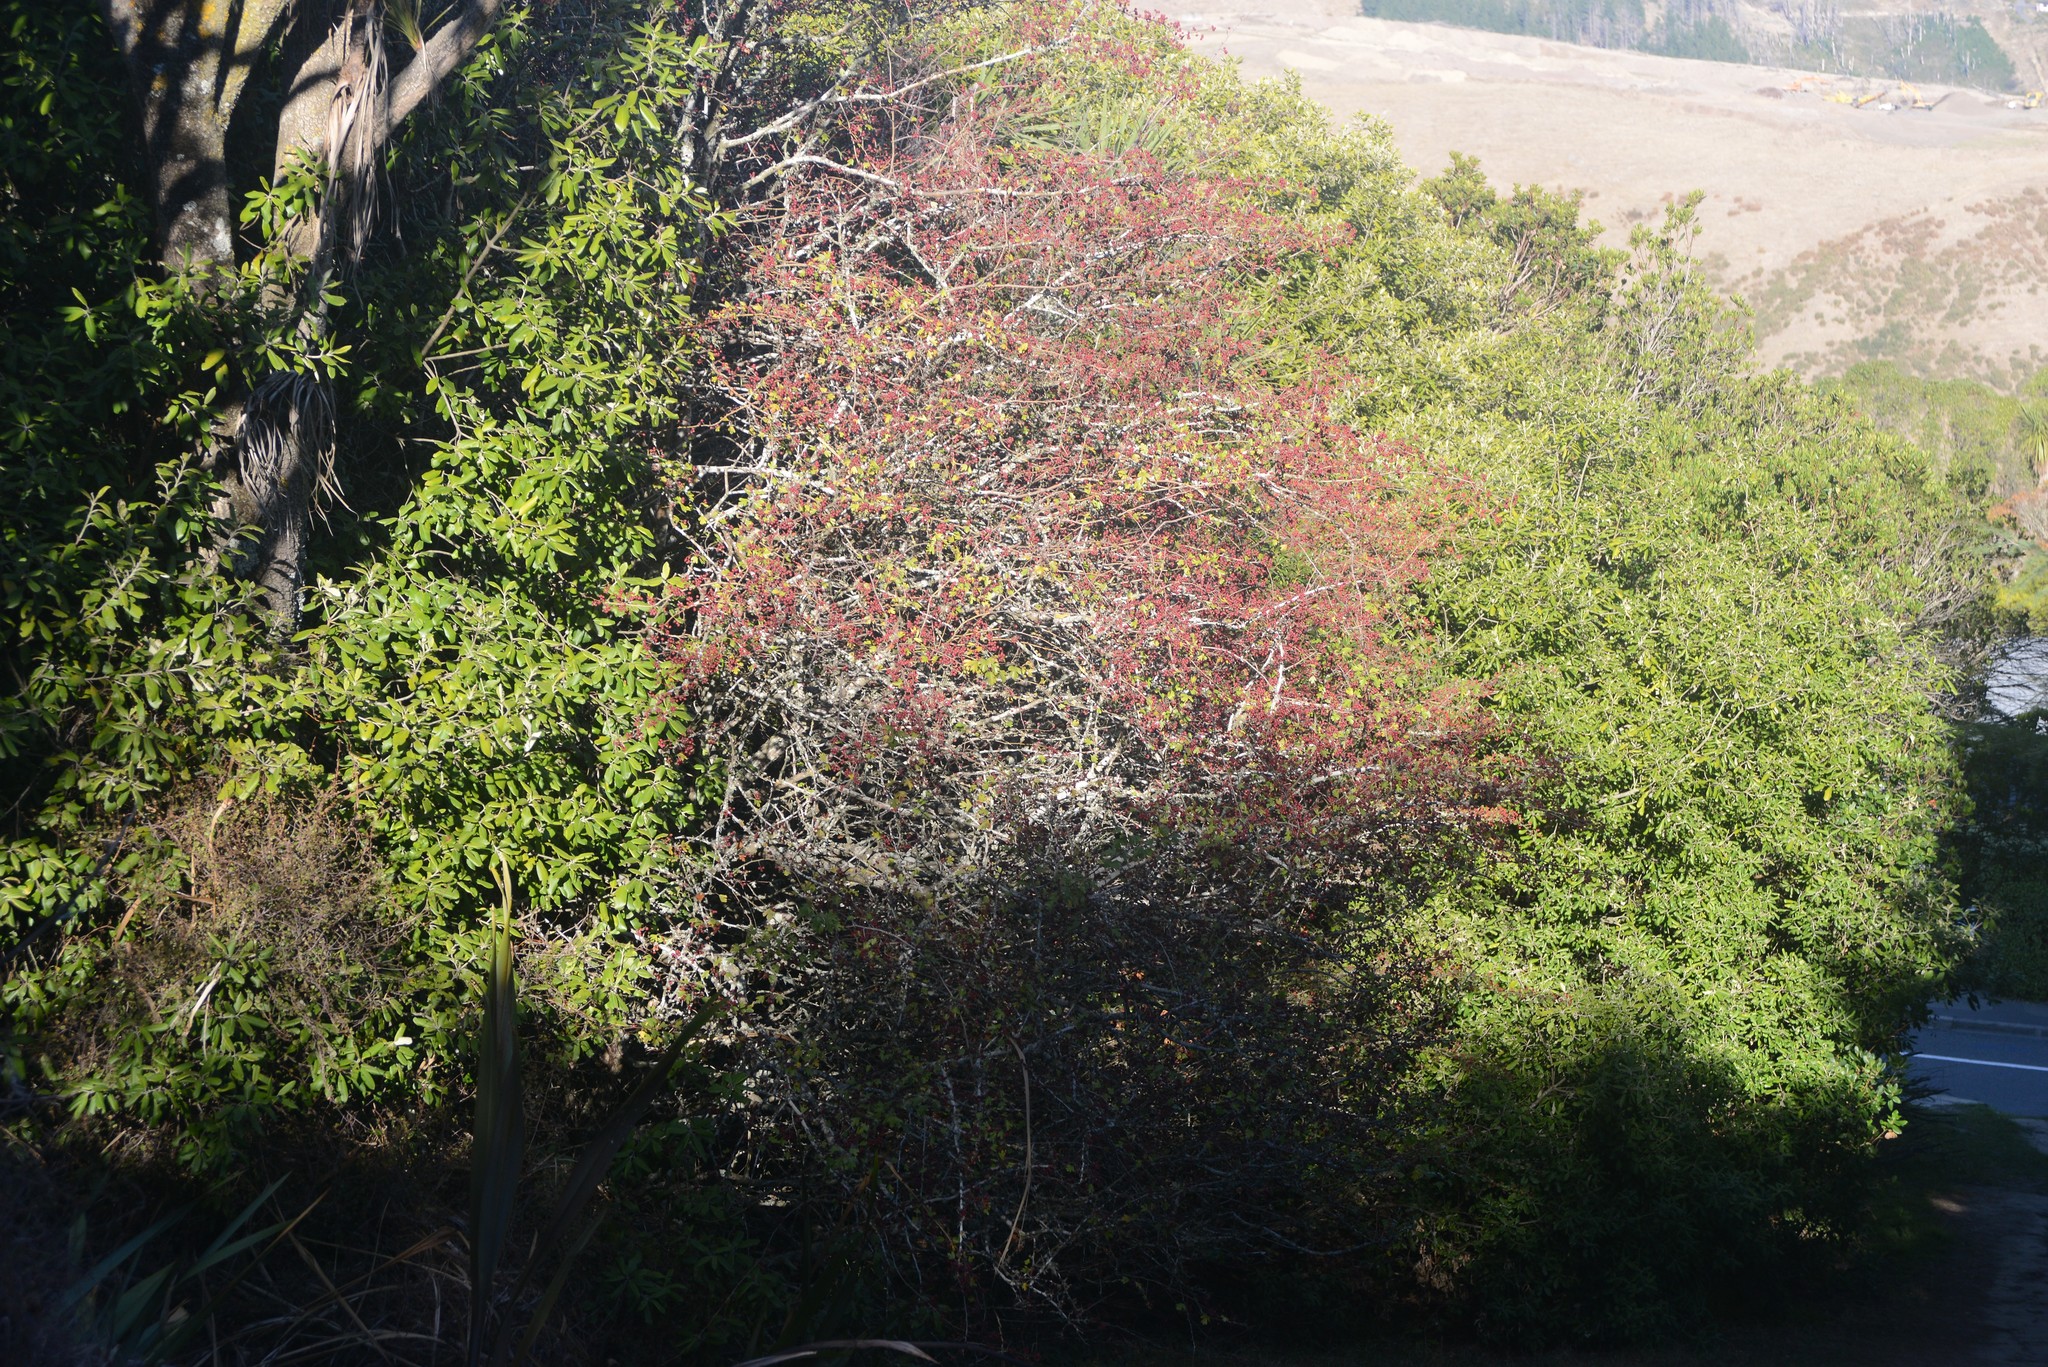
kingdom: Plantae
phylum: Tracheophyta
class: Magnoliopsida
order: Rosales
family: Rosaceae
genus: Crataegus
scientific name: Crataegus monogyna
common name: Hawthorn
